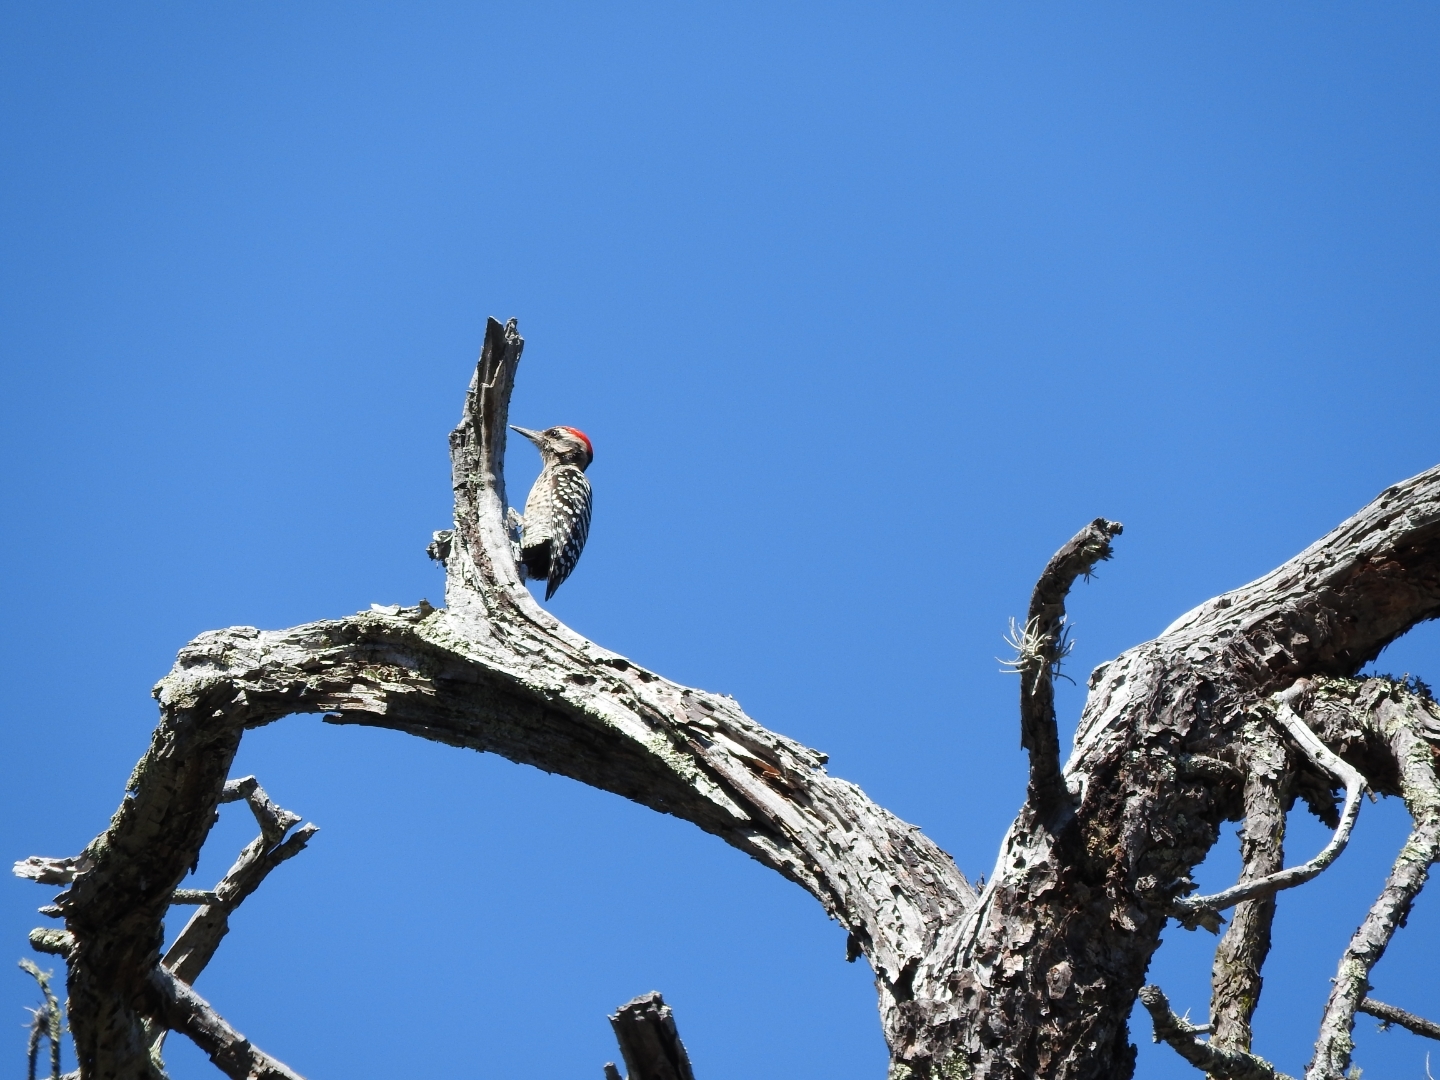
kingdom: Animalia
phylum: Chordata
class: Aves
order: Piciformes
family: Picidae
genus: Dryobates
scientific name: Dryobates scalaris
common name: Ladder-backed woodpecker
